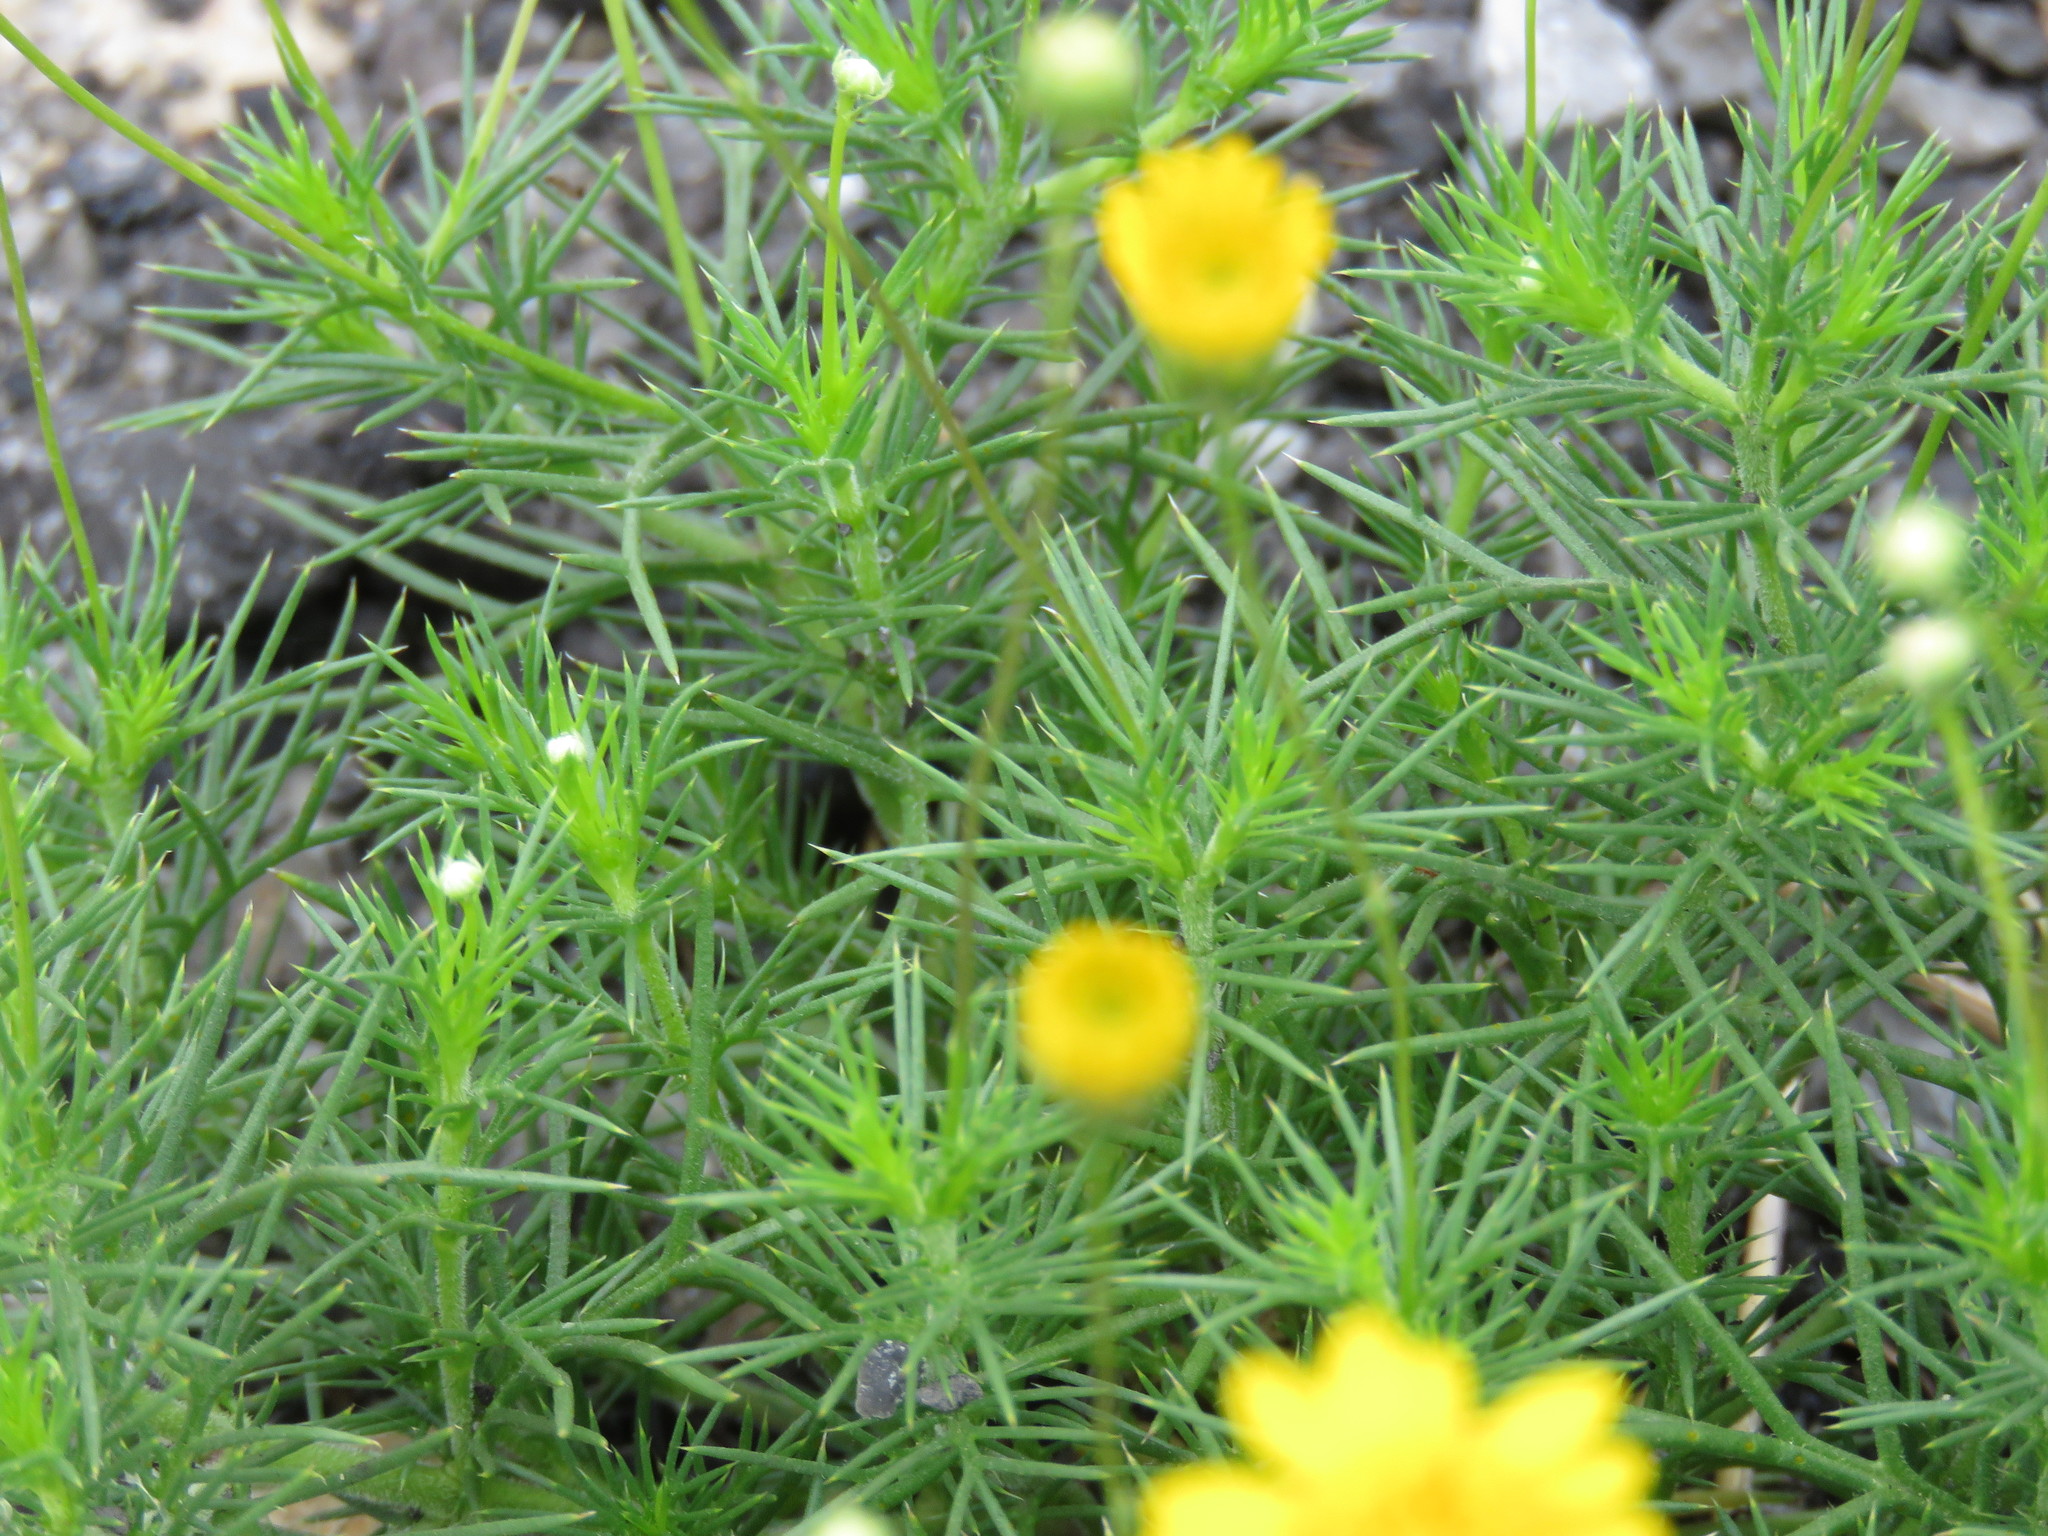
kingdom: Plantae
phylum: Tracheophyta
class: Magnoliopsida
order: Asterales
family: Asteraceae
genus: Thymophylla
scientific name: Thymophylla pentachaeta
